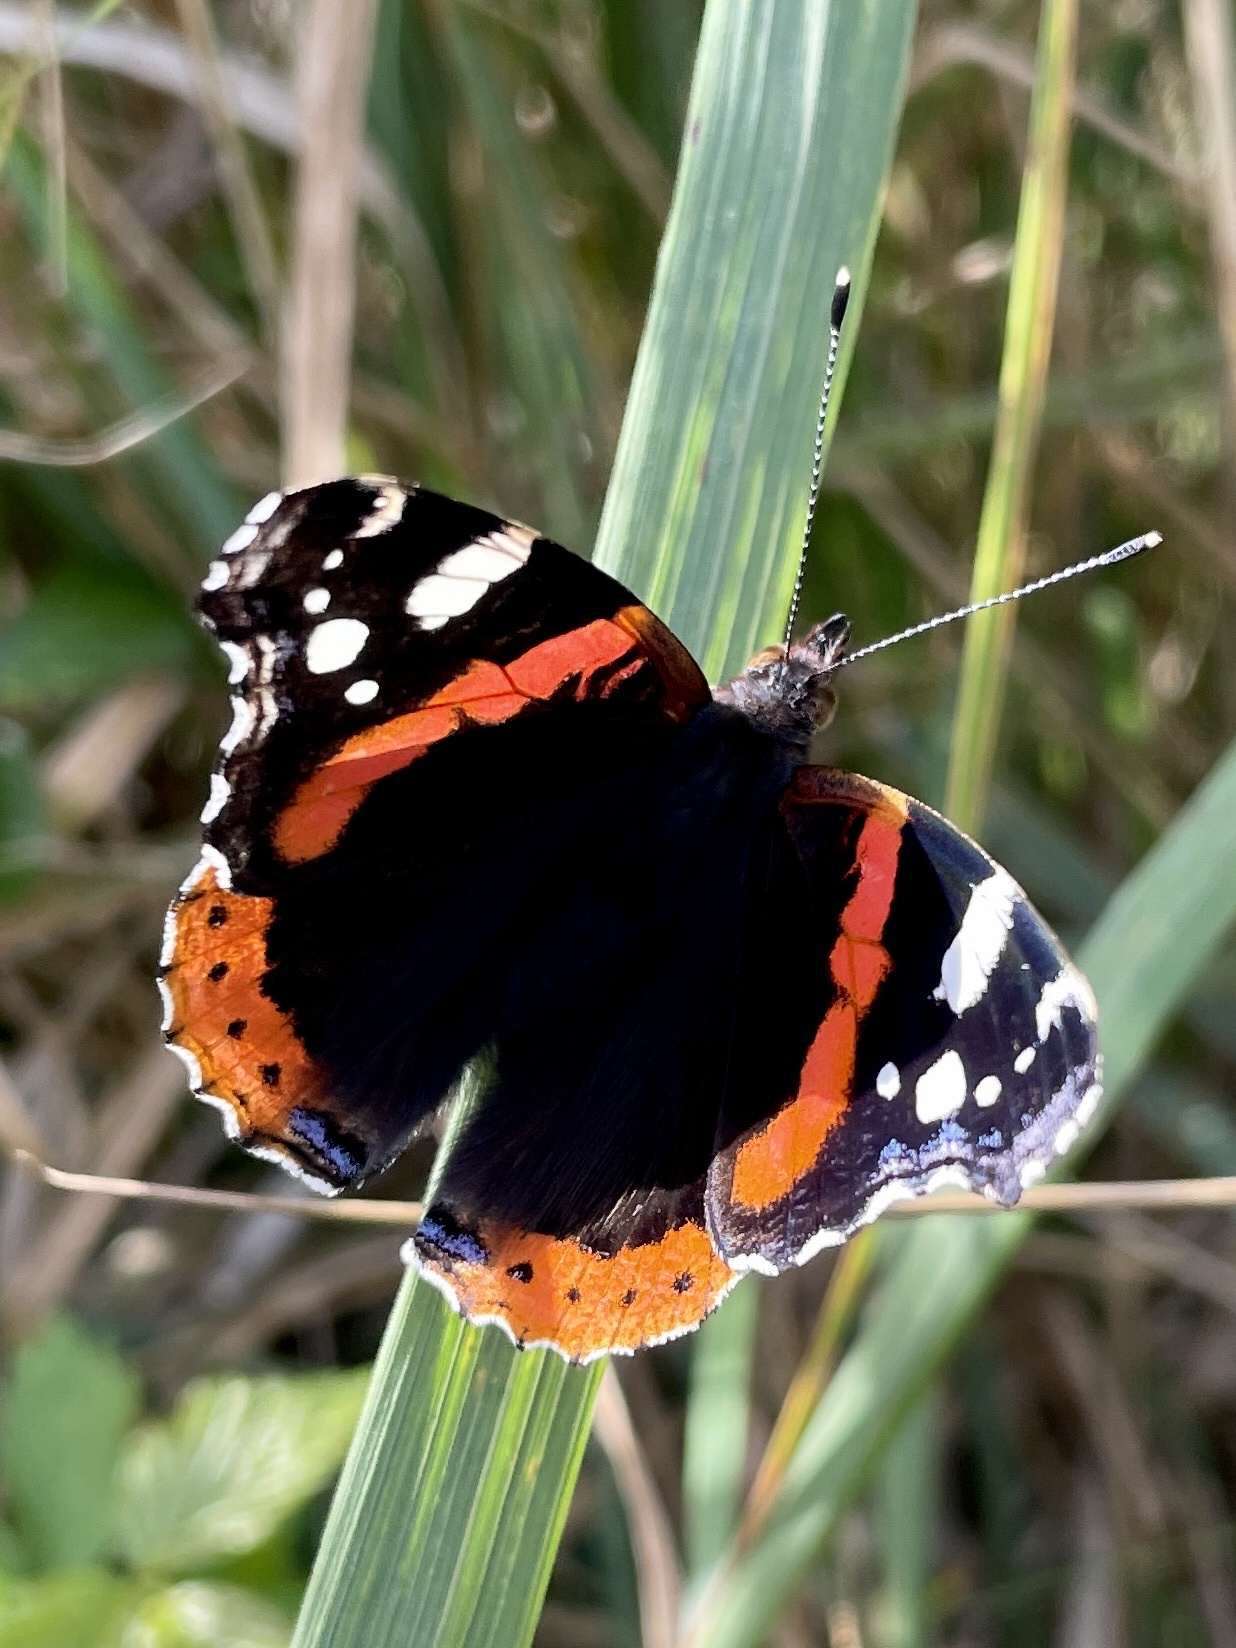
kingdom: Animalia
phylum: Arthropoda
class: Insecta
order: Lepidoptera
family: Nymphalidae
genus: Vanessa
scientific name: Vanessa atalanta
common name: Red admiral
